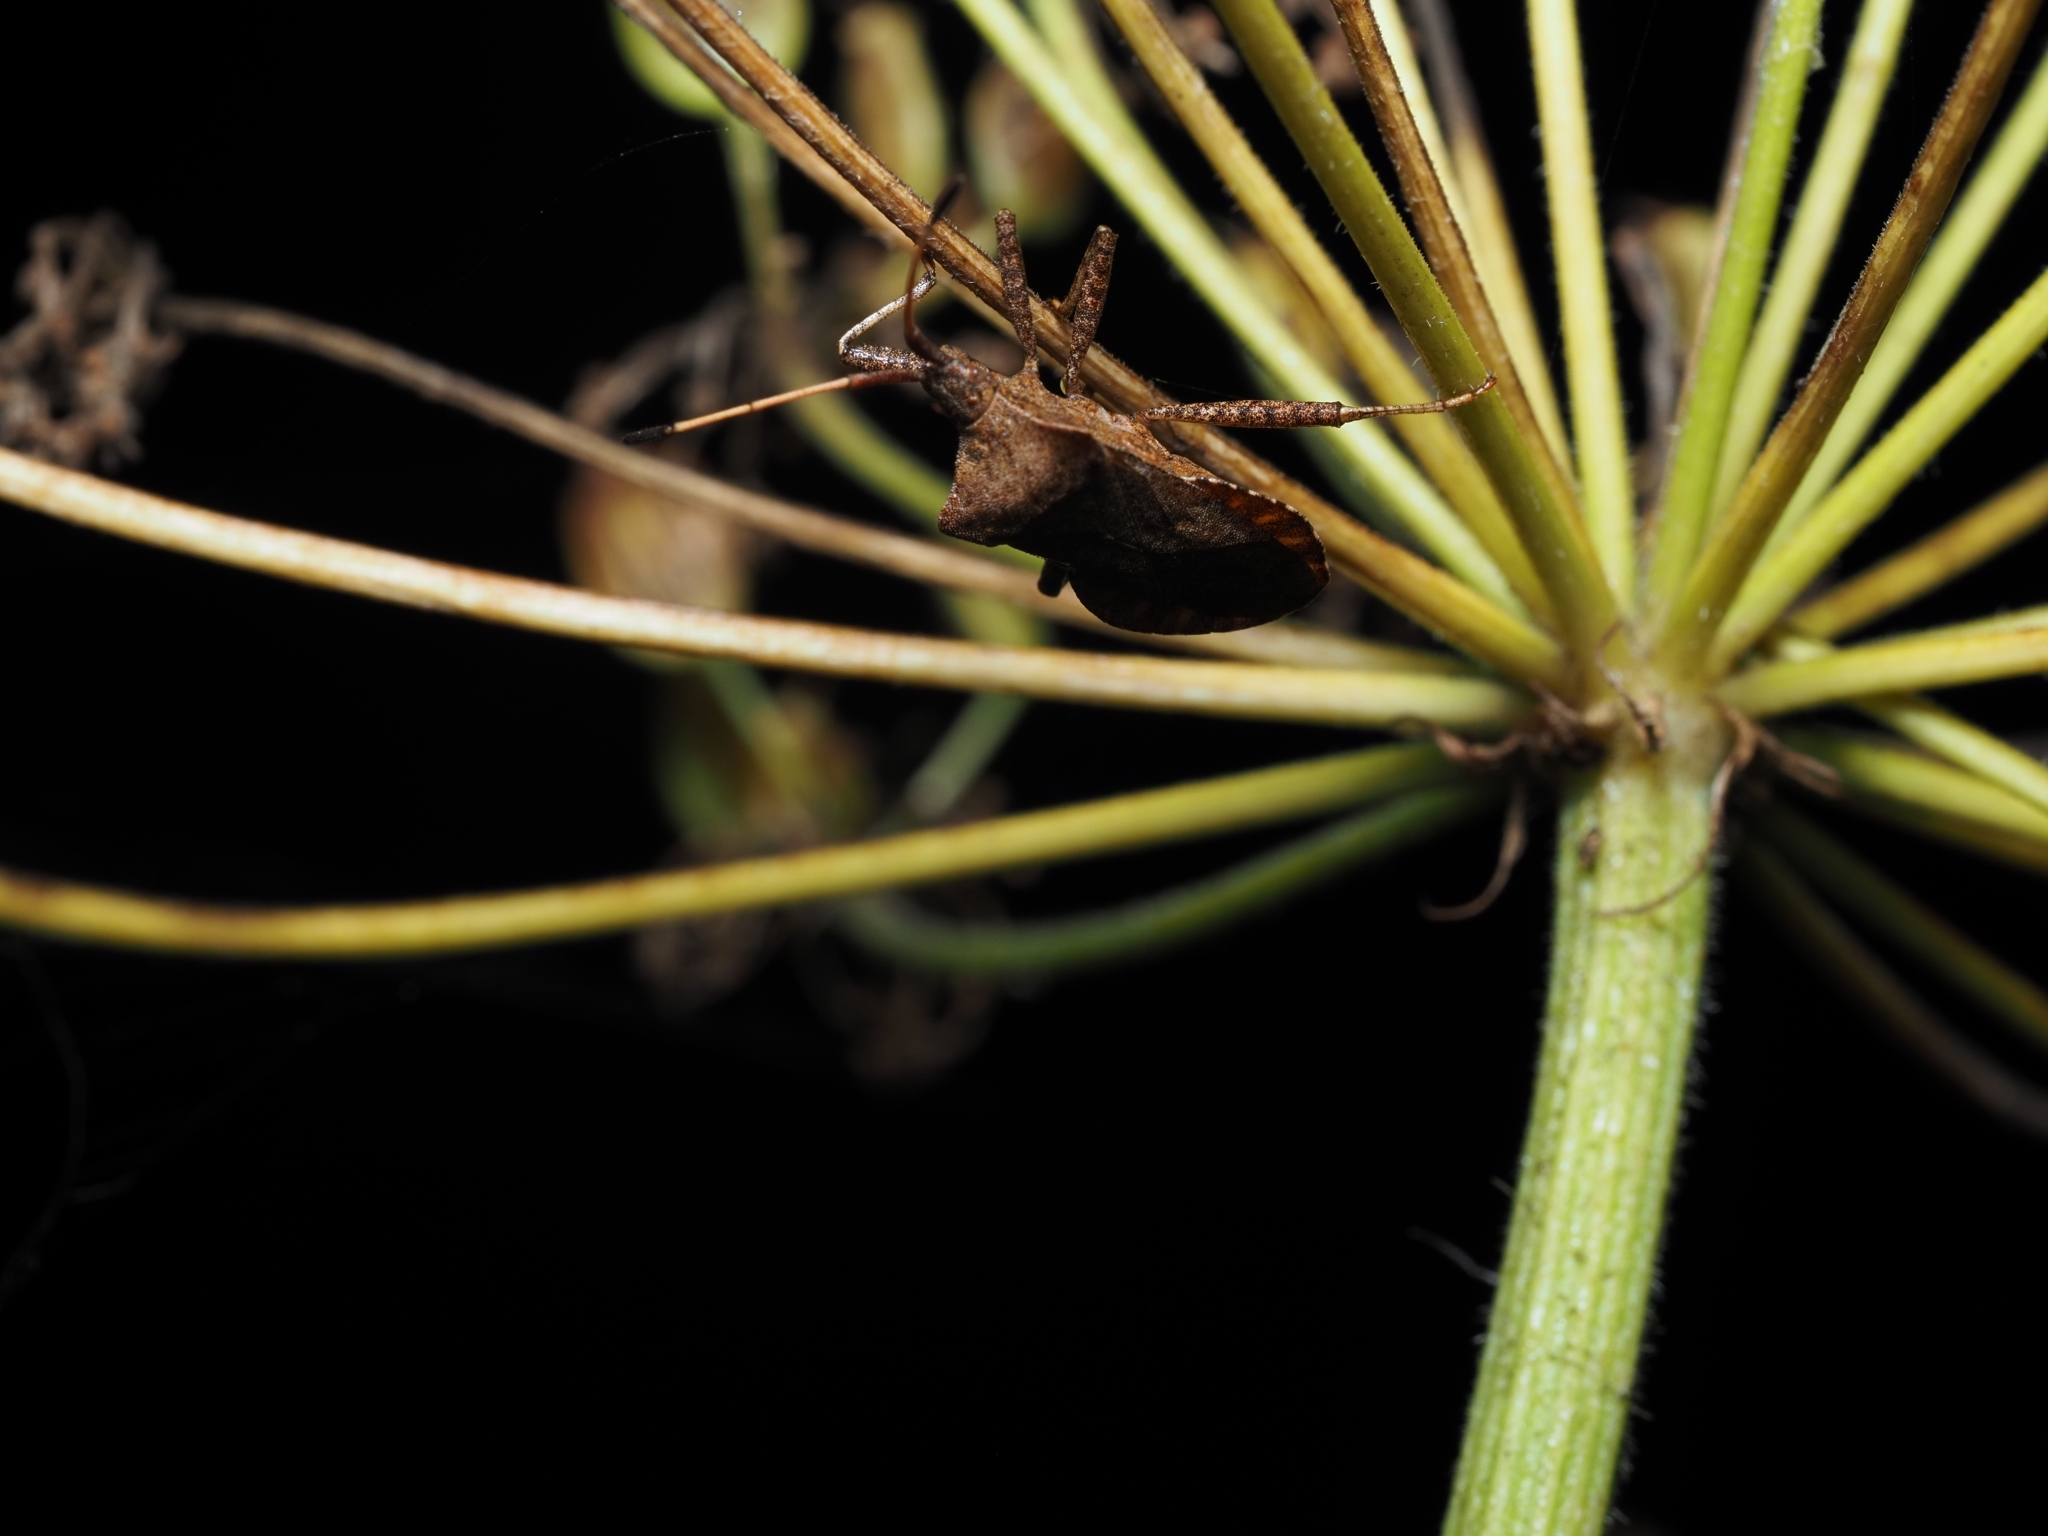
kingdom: Animalia
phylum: Arthropoda
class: Insecta
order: Hemiptera
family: Coreidae
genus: Coreus
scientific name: Coreus marginatus
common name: Dock bug
